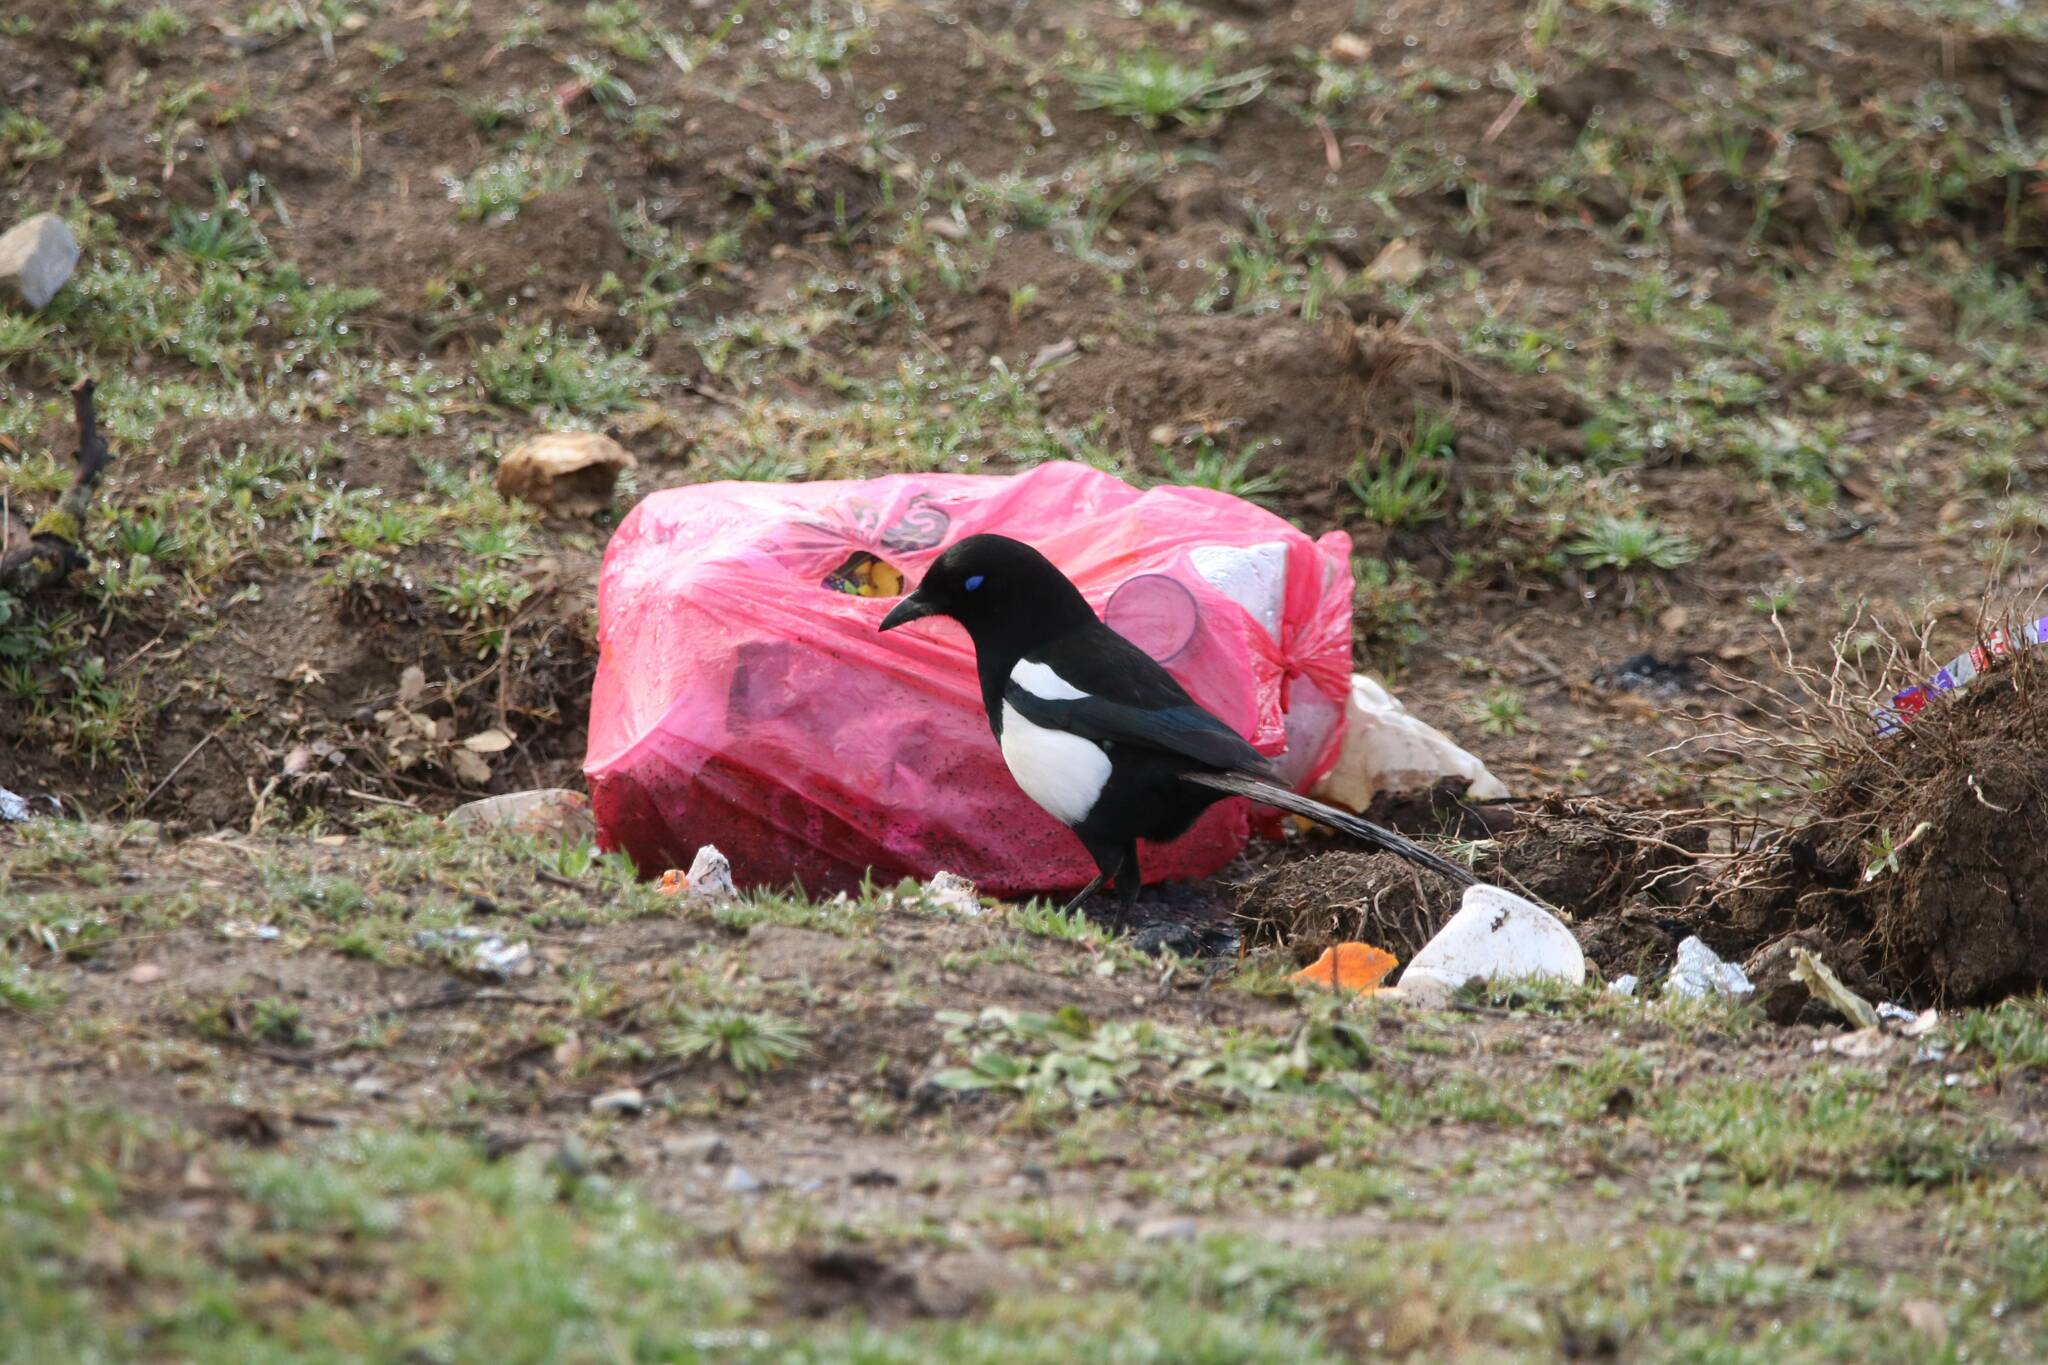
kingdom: Animalia
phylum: Chordata
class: Aves
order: Passeriformes
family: Corvidae
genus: Pica
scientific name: Pica mauritanica
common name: Maghreb magpie
